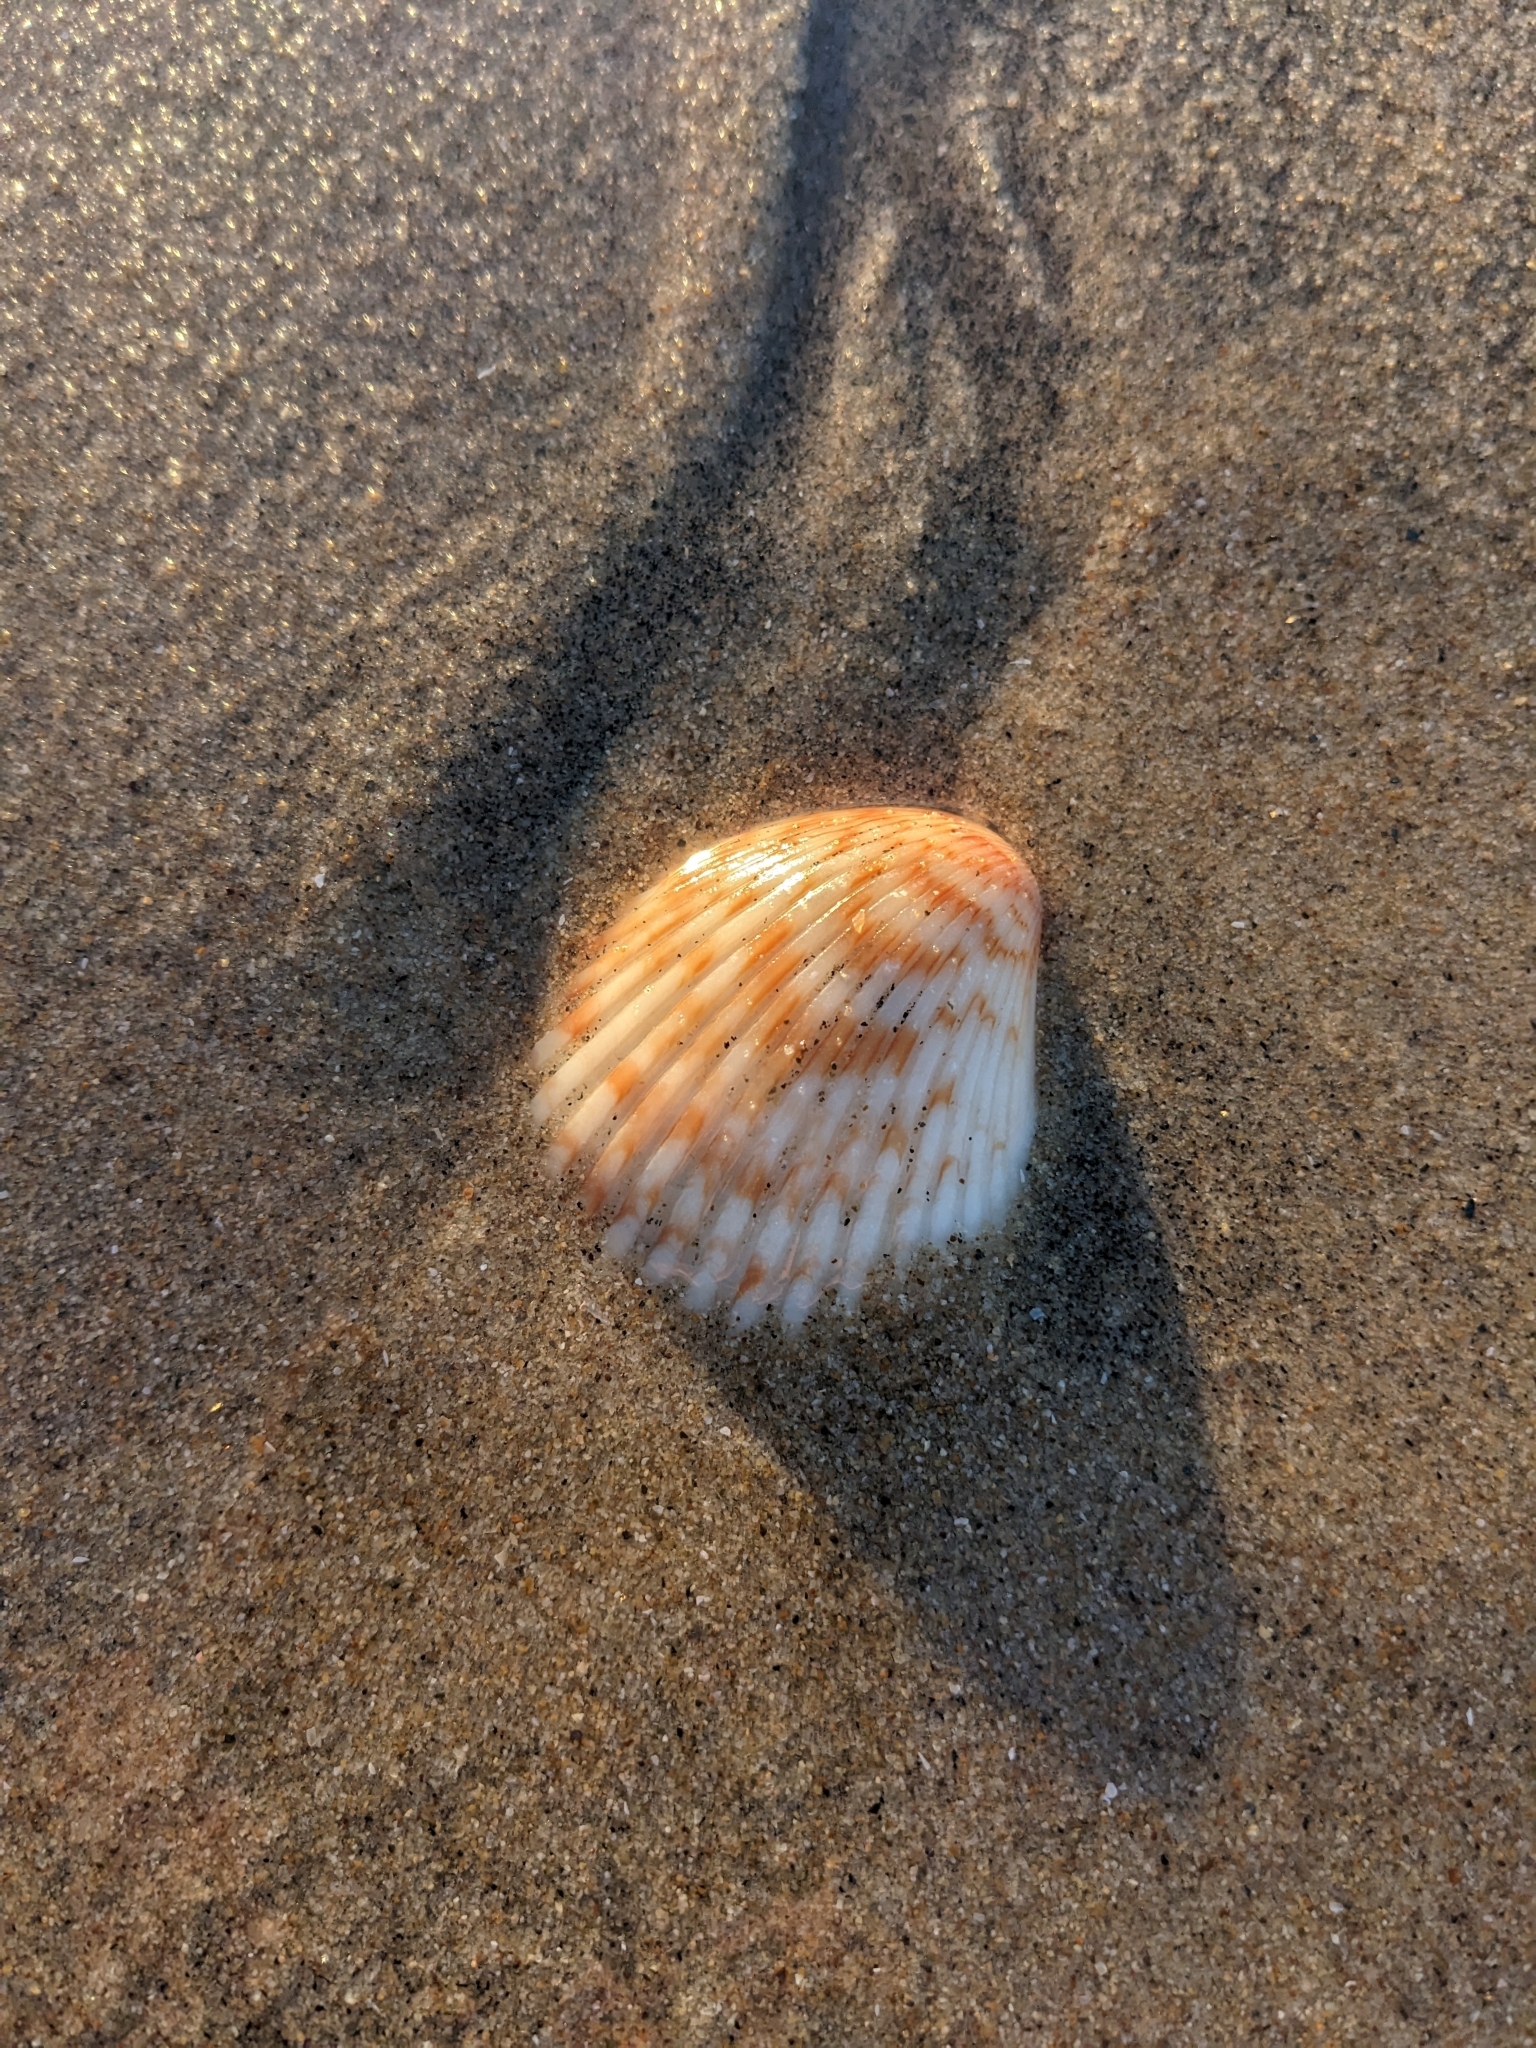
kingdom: Animalia
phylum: Mollusca
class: Bivalvia
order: Pectinida
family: Pectinidae
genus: Argopecten
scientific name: Argopecten ventricosus
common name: Catarina scallop
